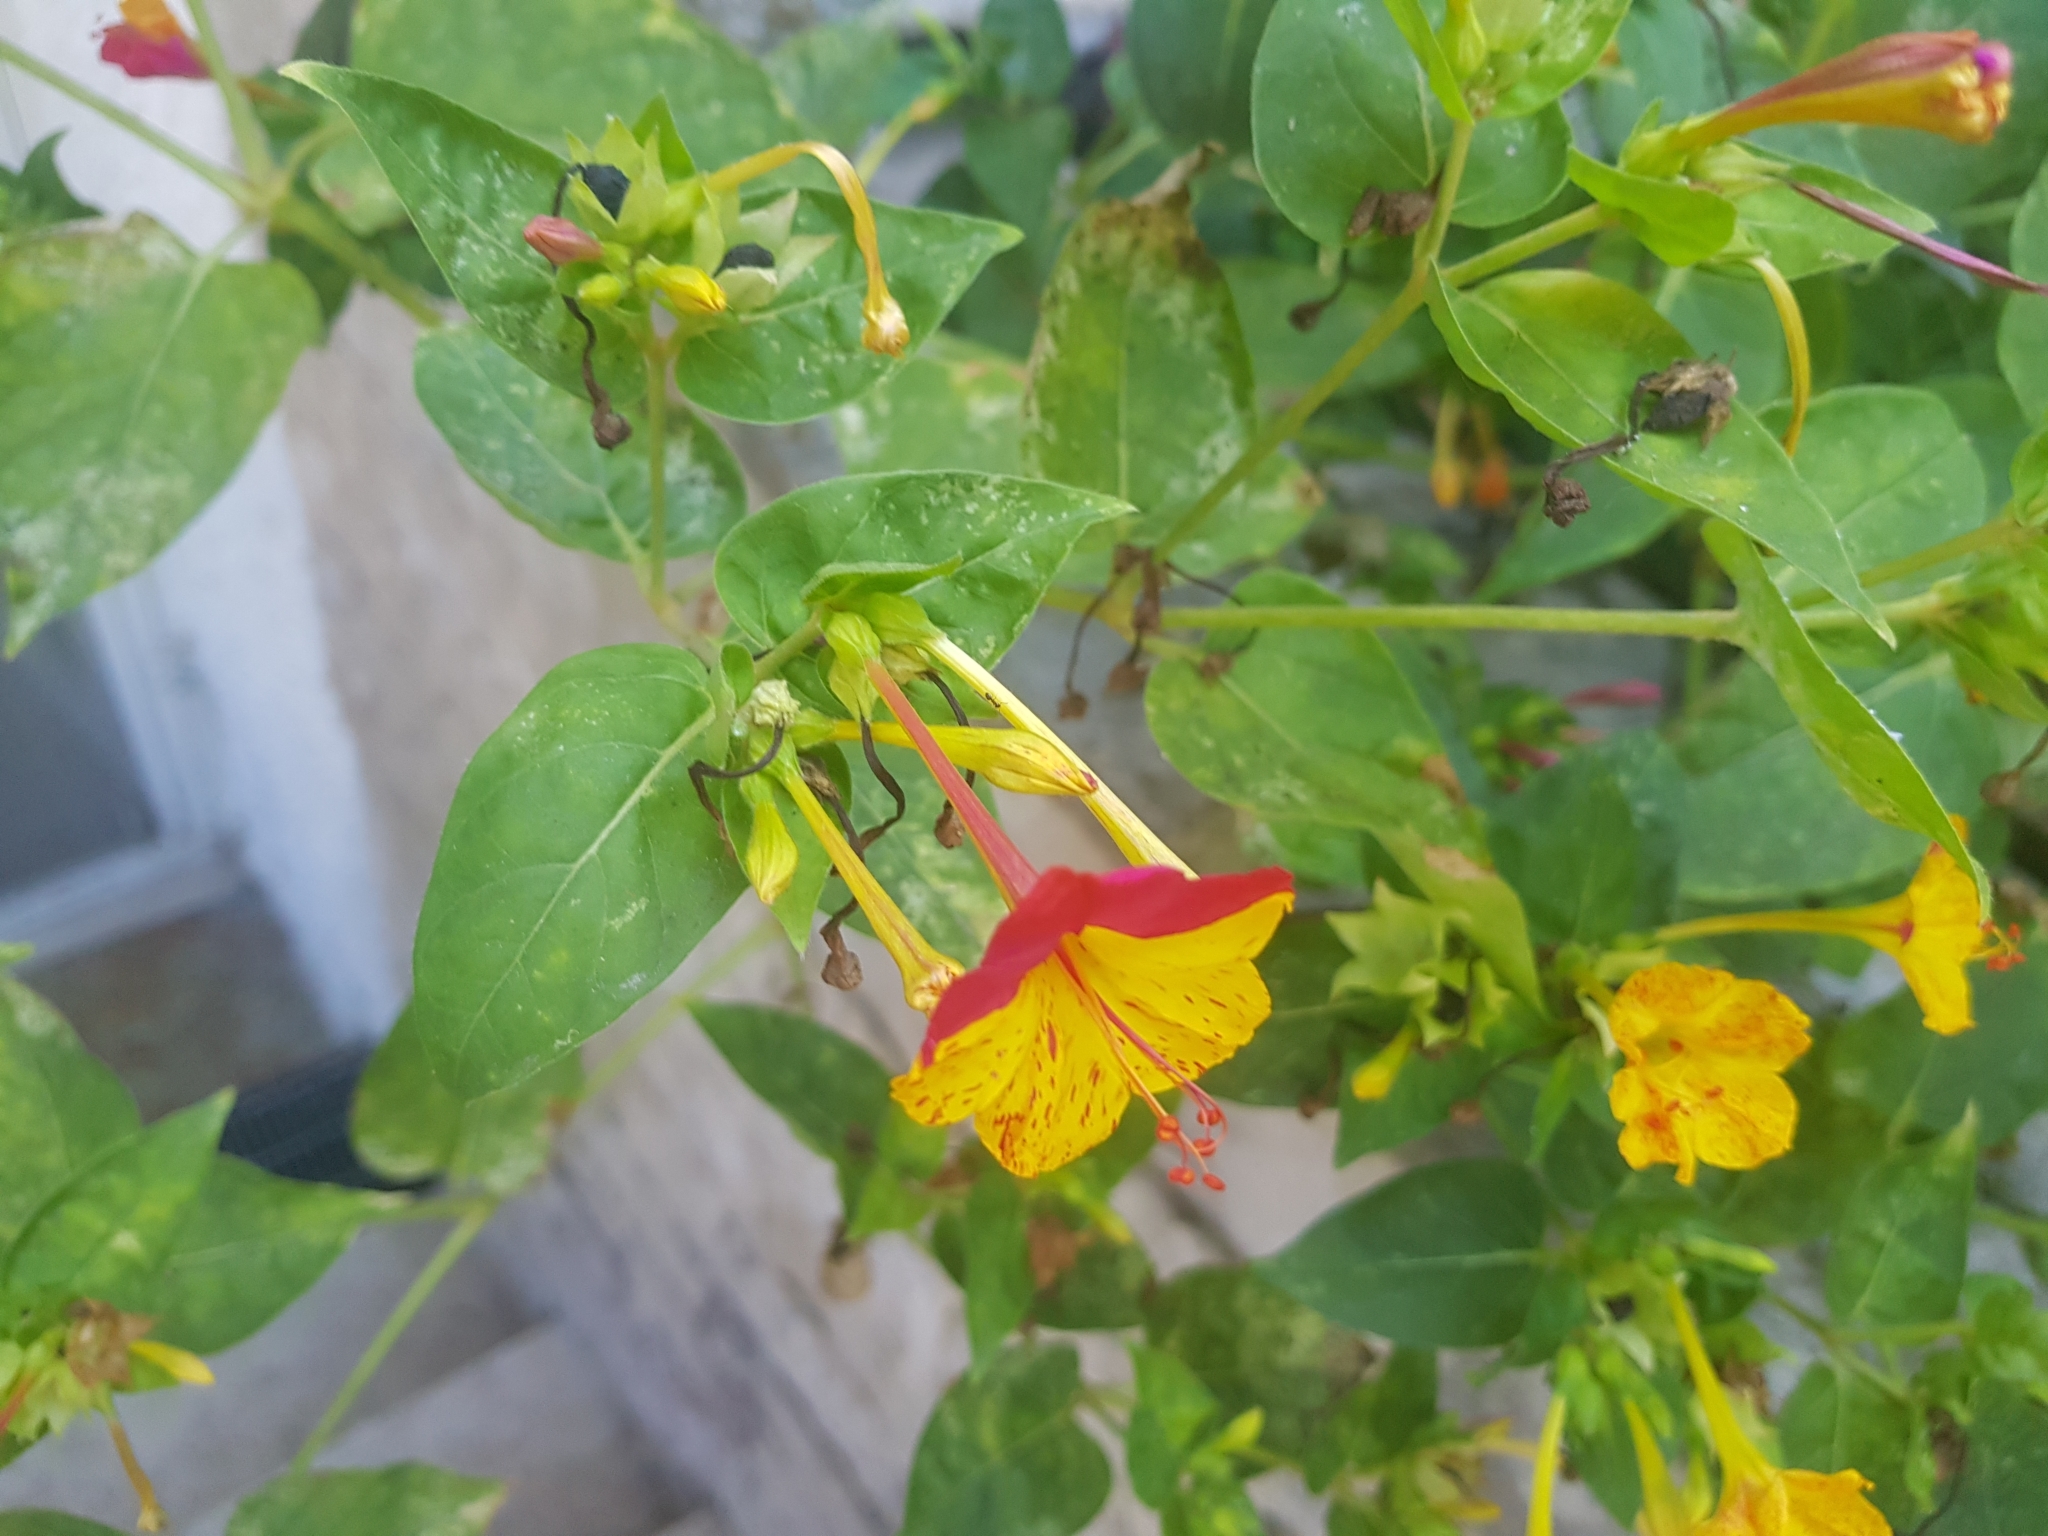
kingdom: Plantae
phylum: Tracheophyta
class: Magnoliopsida
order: Caryophyllales
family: Nyctaginaceae
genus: Mirabilis
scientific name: Mirabilis jalapa
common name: Marvel-of-peru
